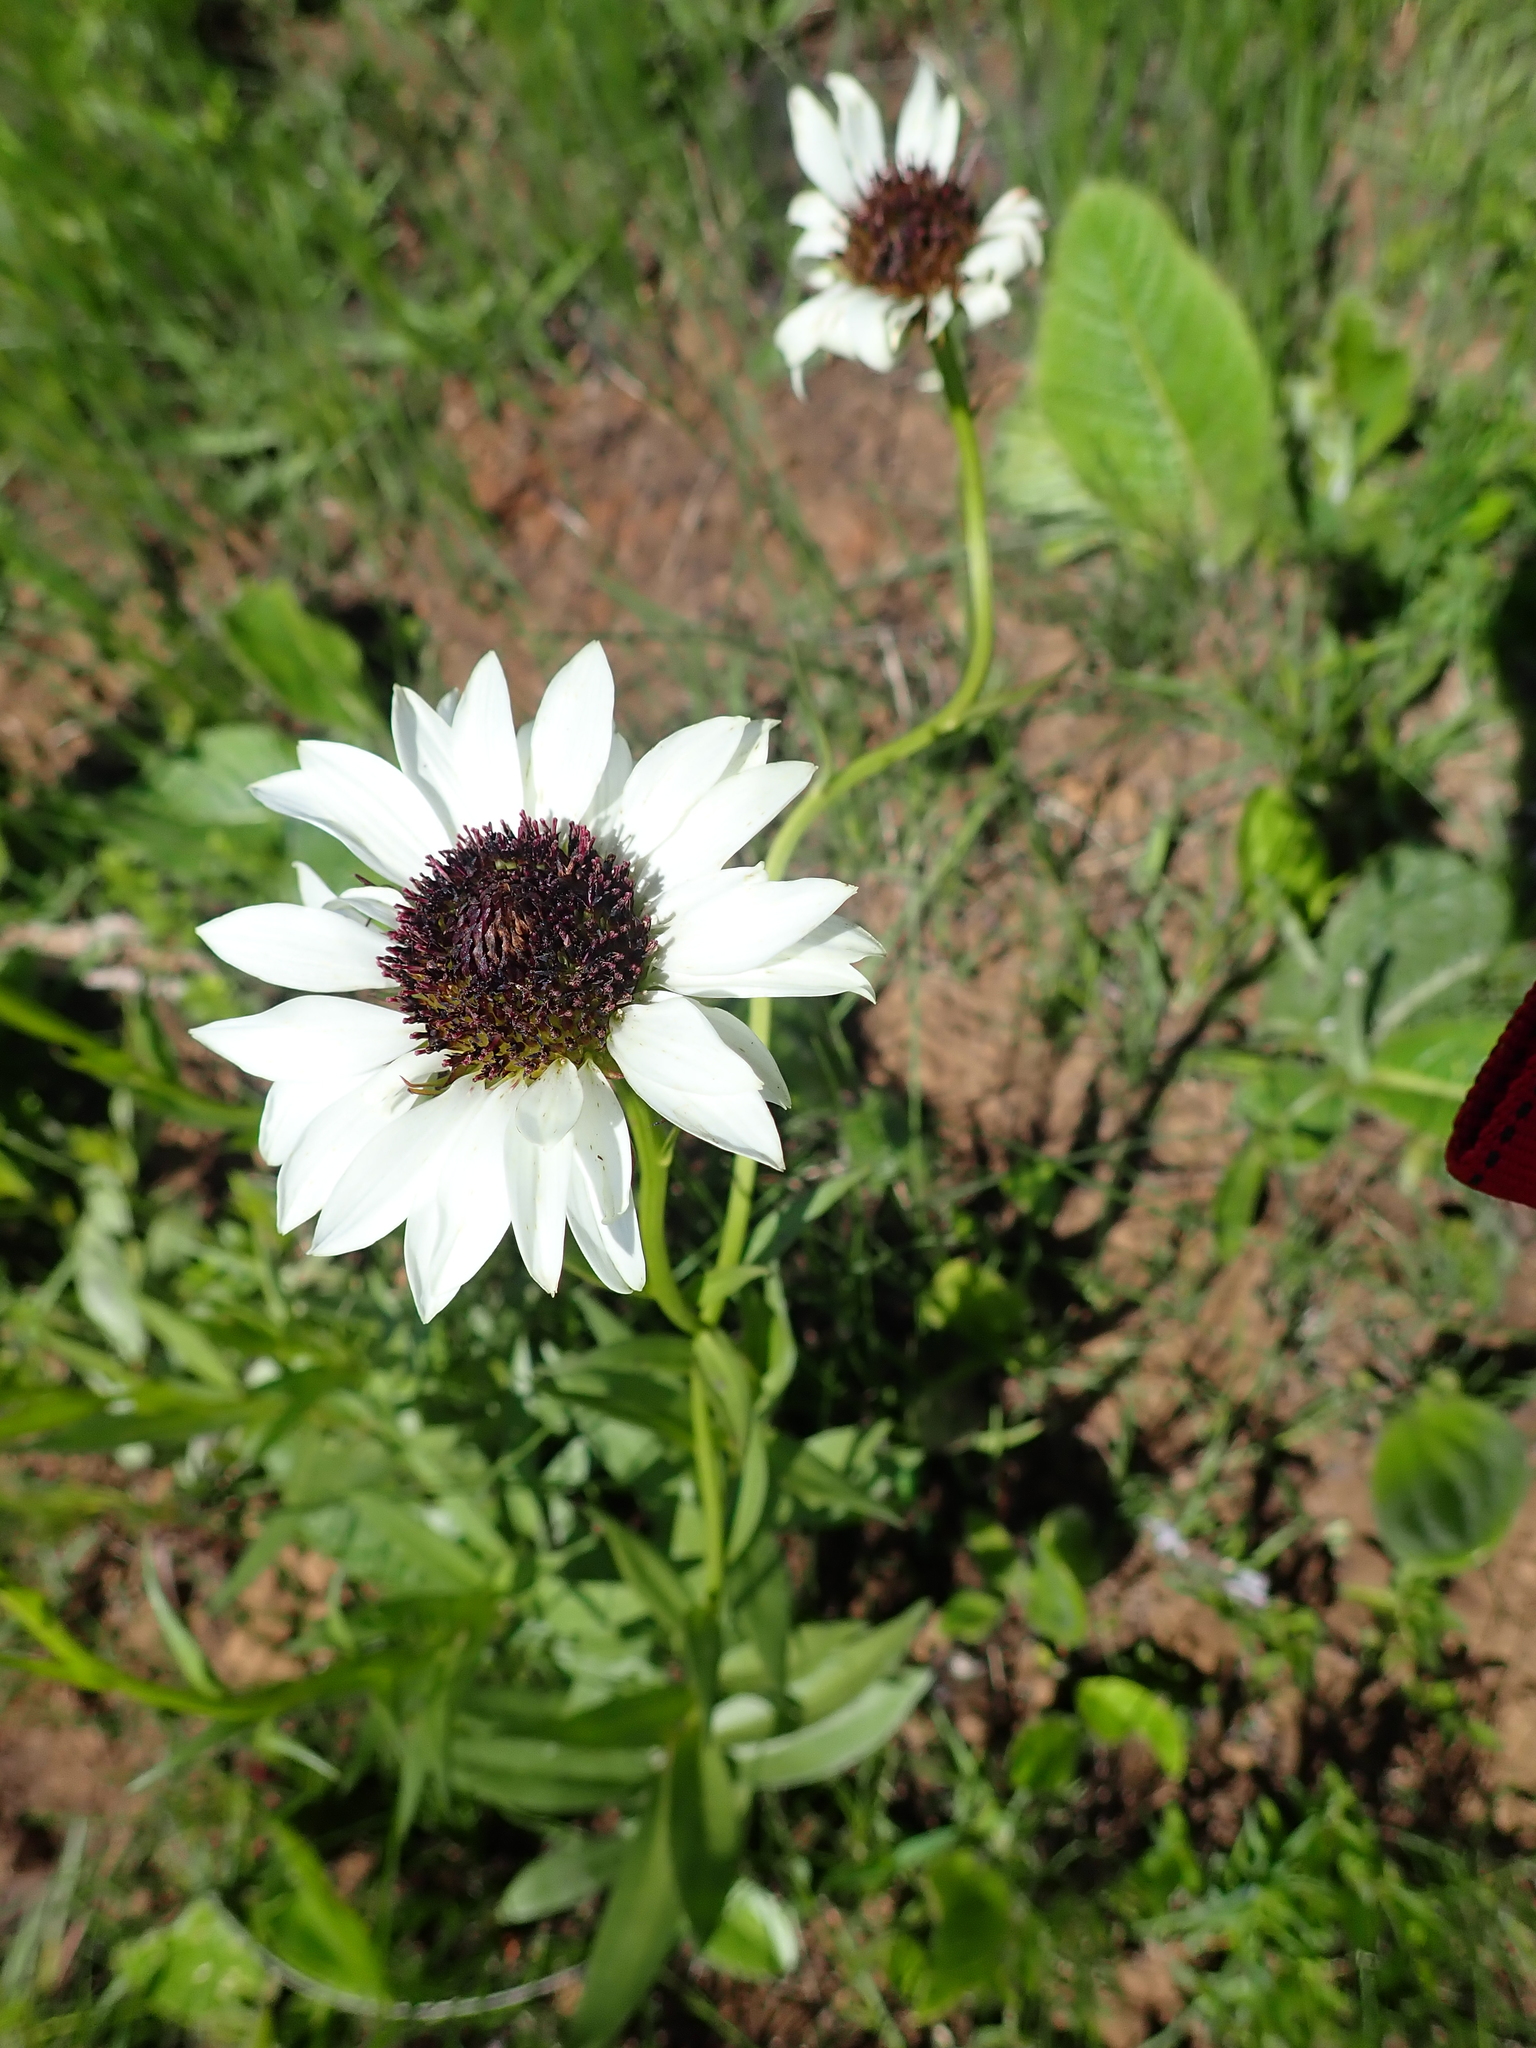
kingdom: Plantae
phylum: Tracheophyta
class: Magnoliopsida
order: Asterales
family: Asteraceae
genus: Callilepis
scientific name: Callilepis laureola
